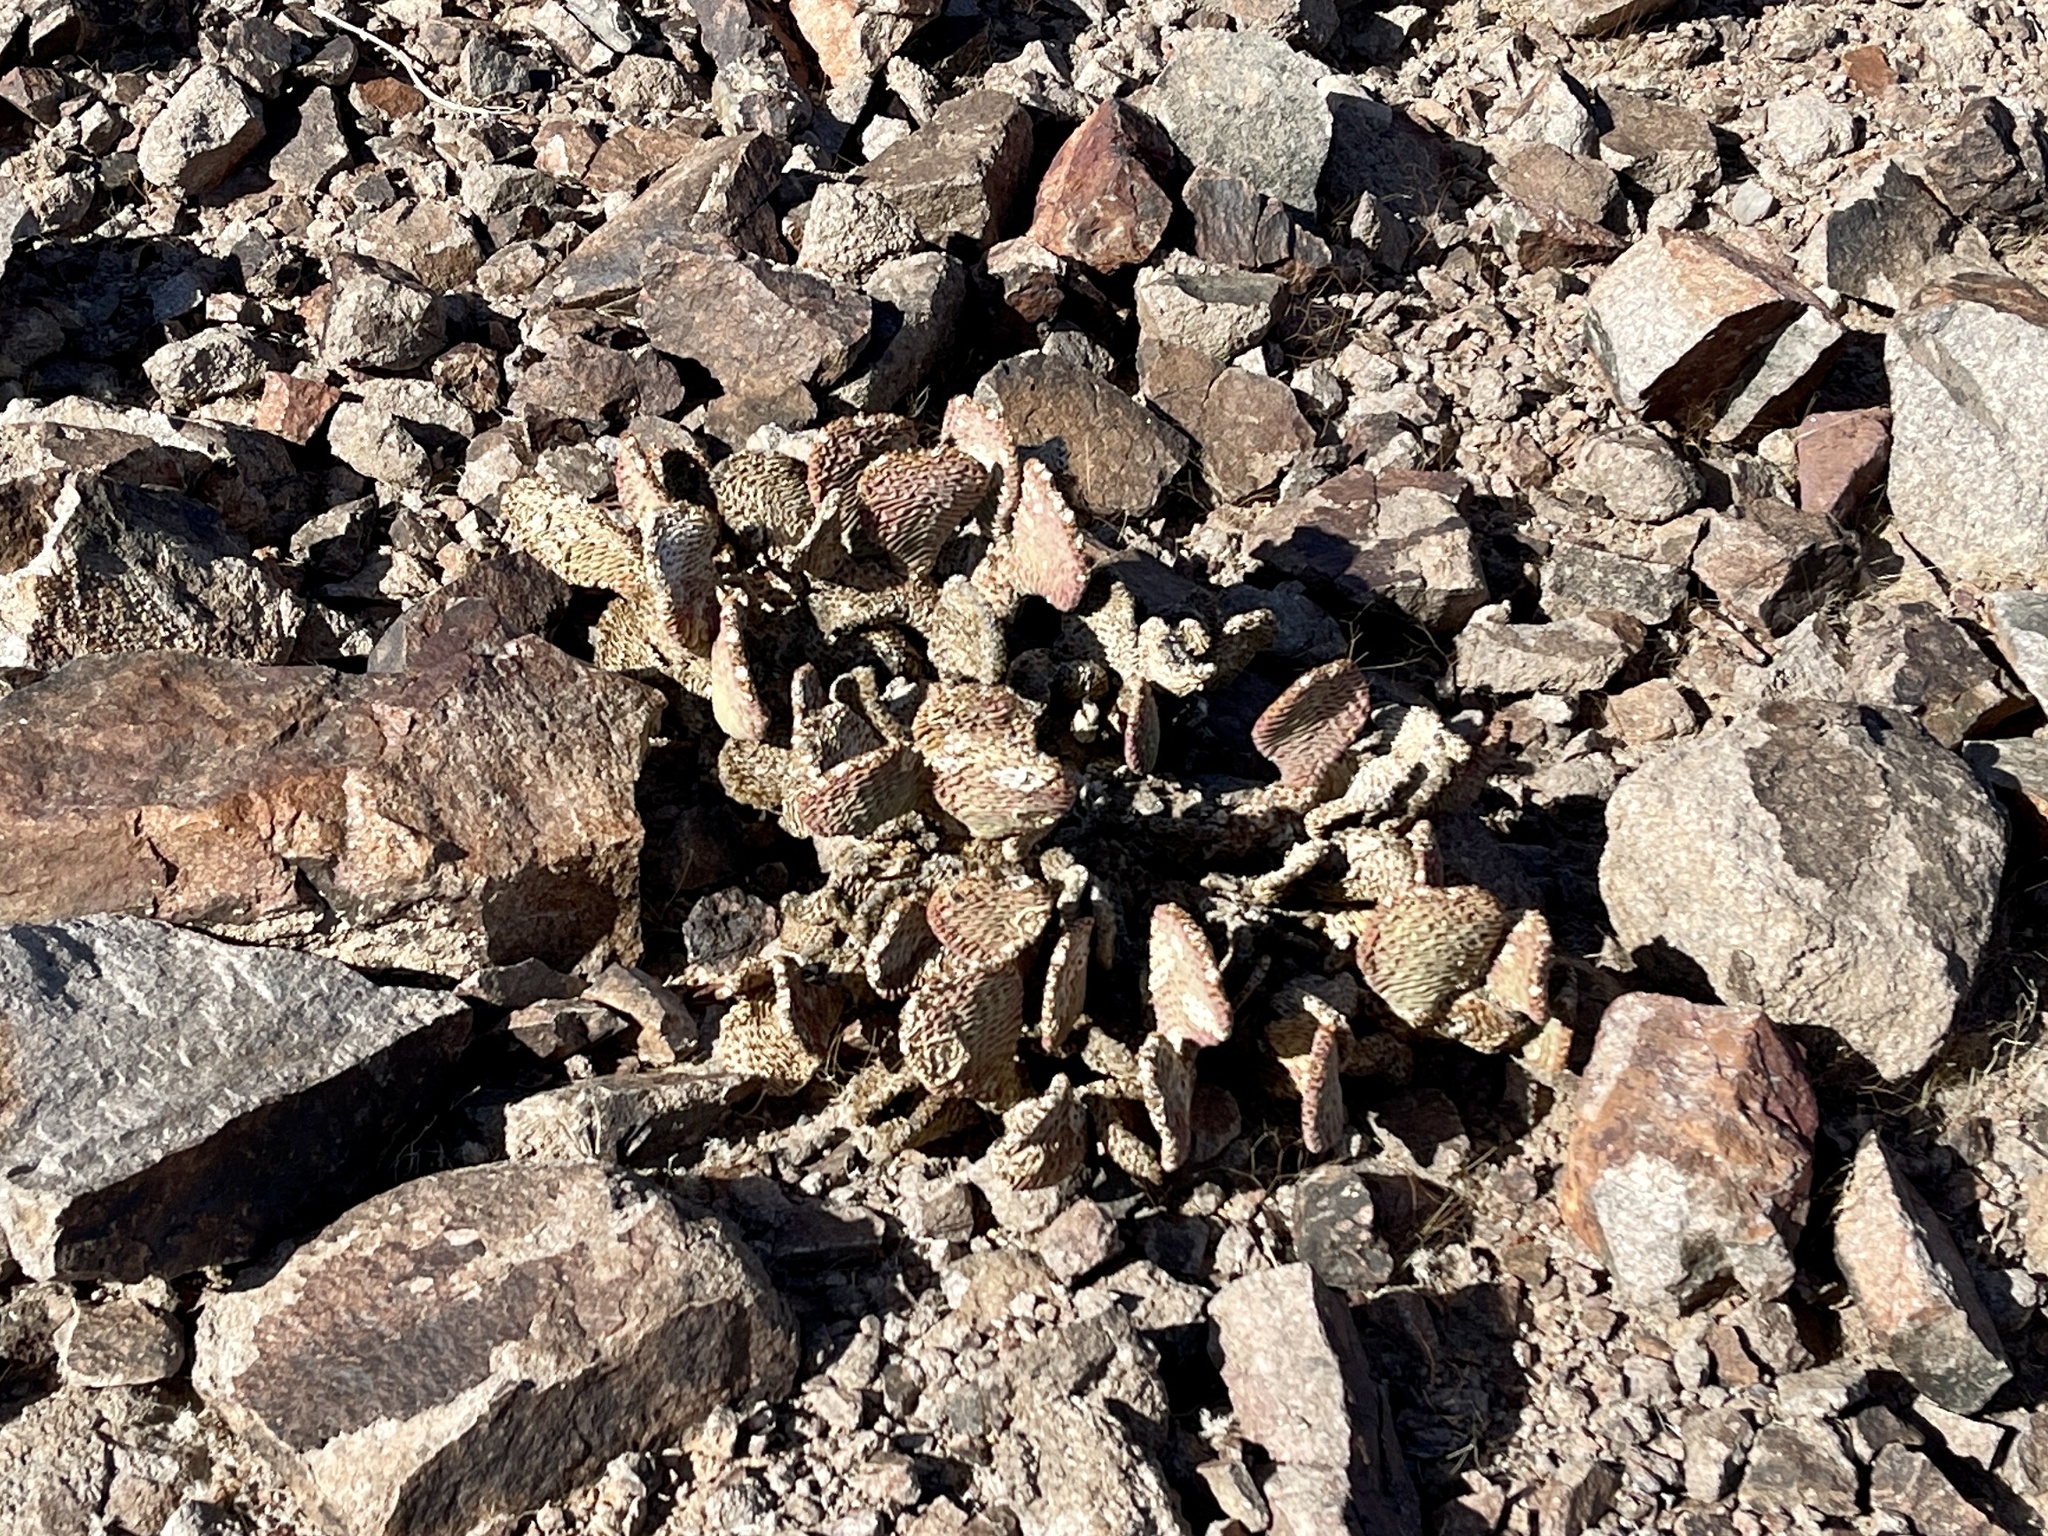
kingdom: Plantae
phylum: Tracheophyta
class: Magnoliopsida
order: Caryophyllales
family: Cactaceae
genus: Opuntia
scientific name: Opuntia basilaris
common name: Beavertail prickly-pear
